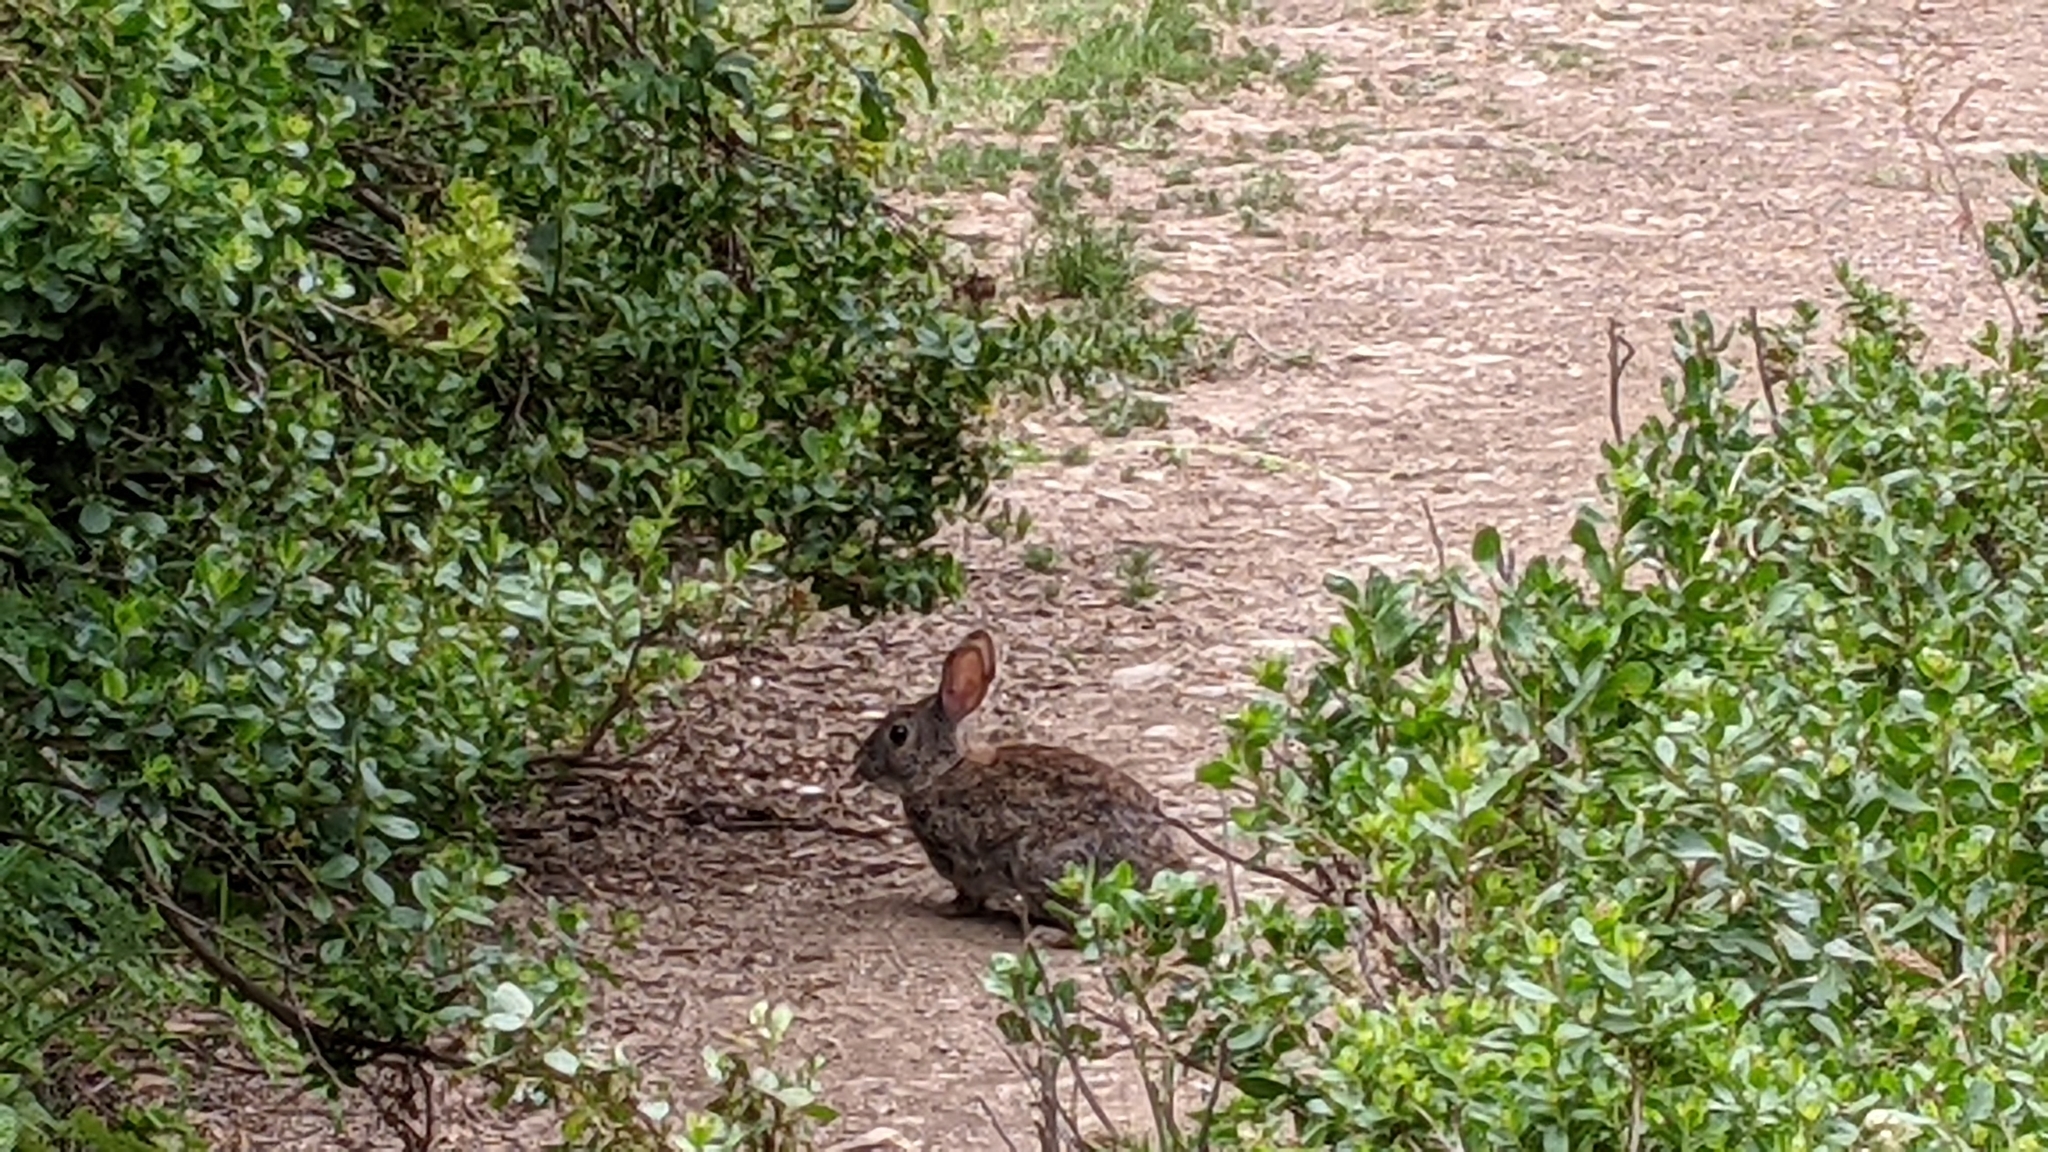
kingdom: Animalia
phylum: Chordata
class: Mammalia
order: Lagomorpha
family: Leporidae
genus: Sylvilagus
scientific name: Sylvilagus bachmani
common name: Brush rabbit
